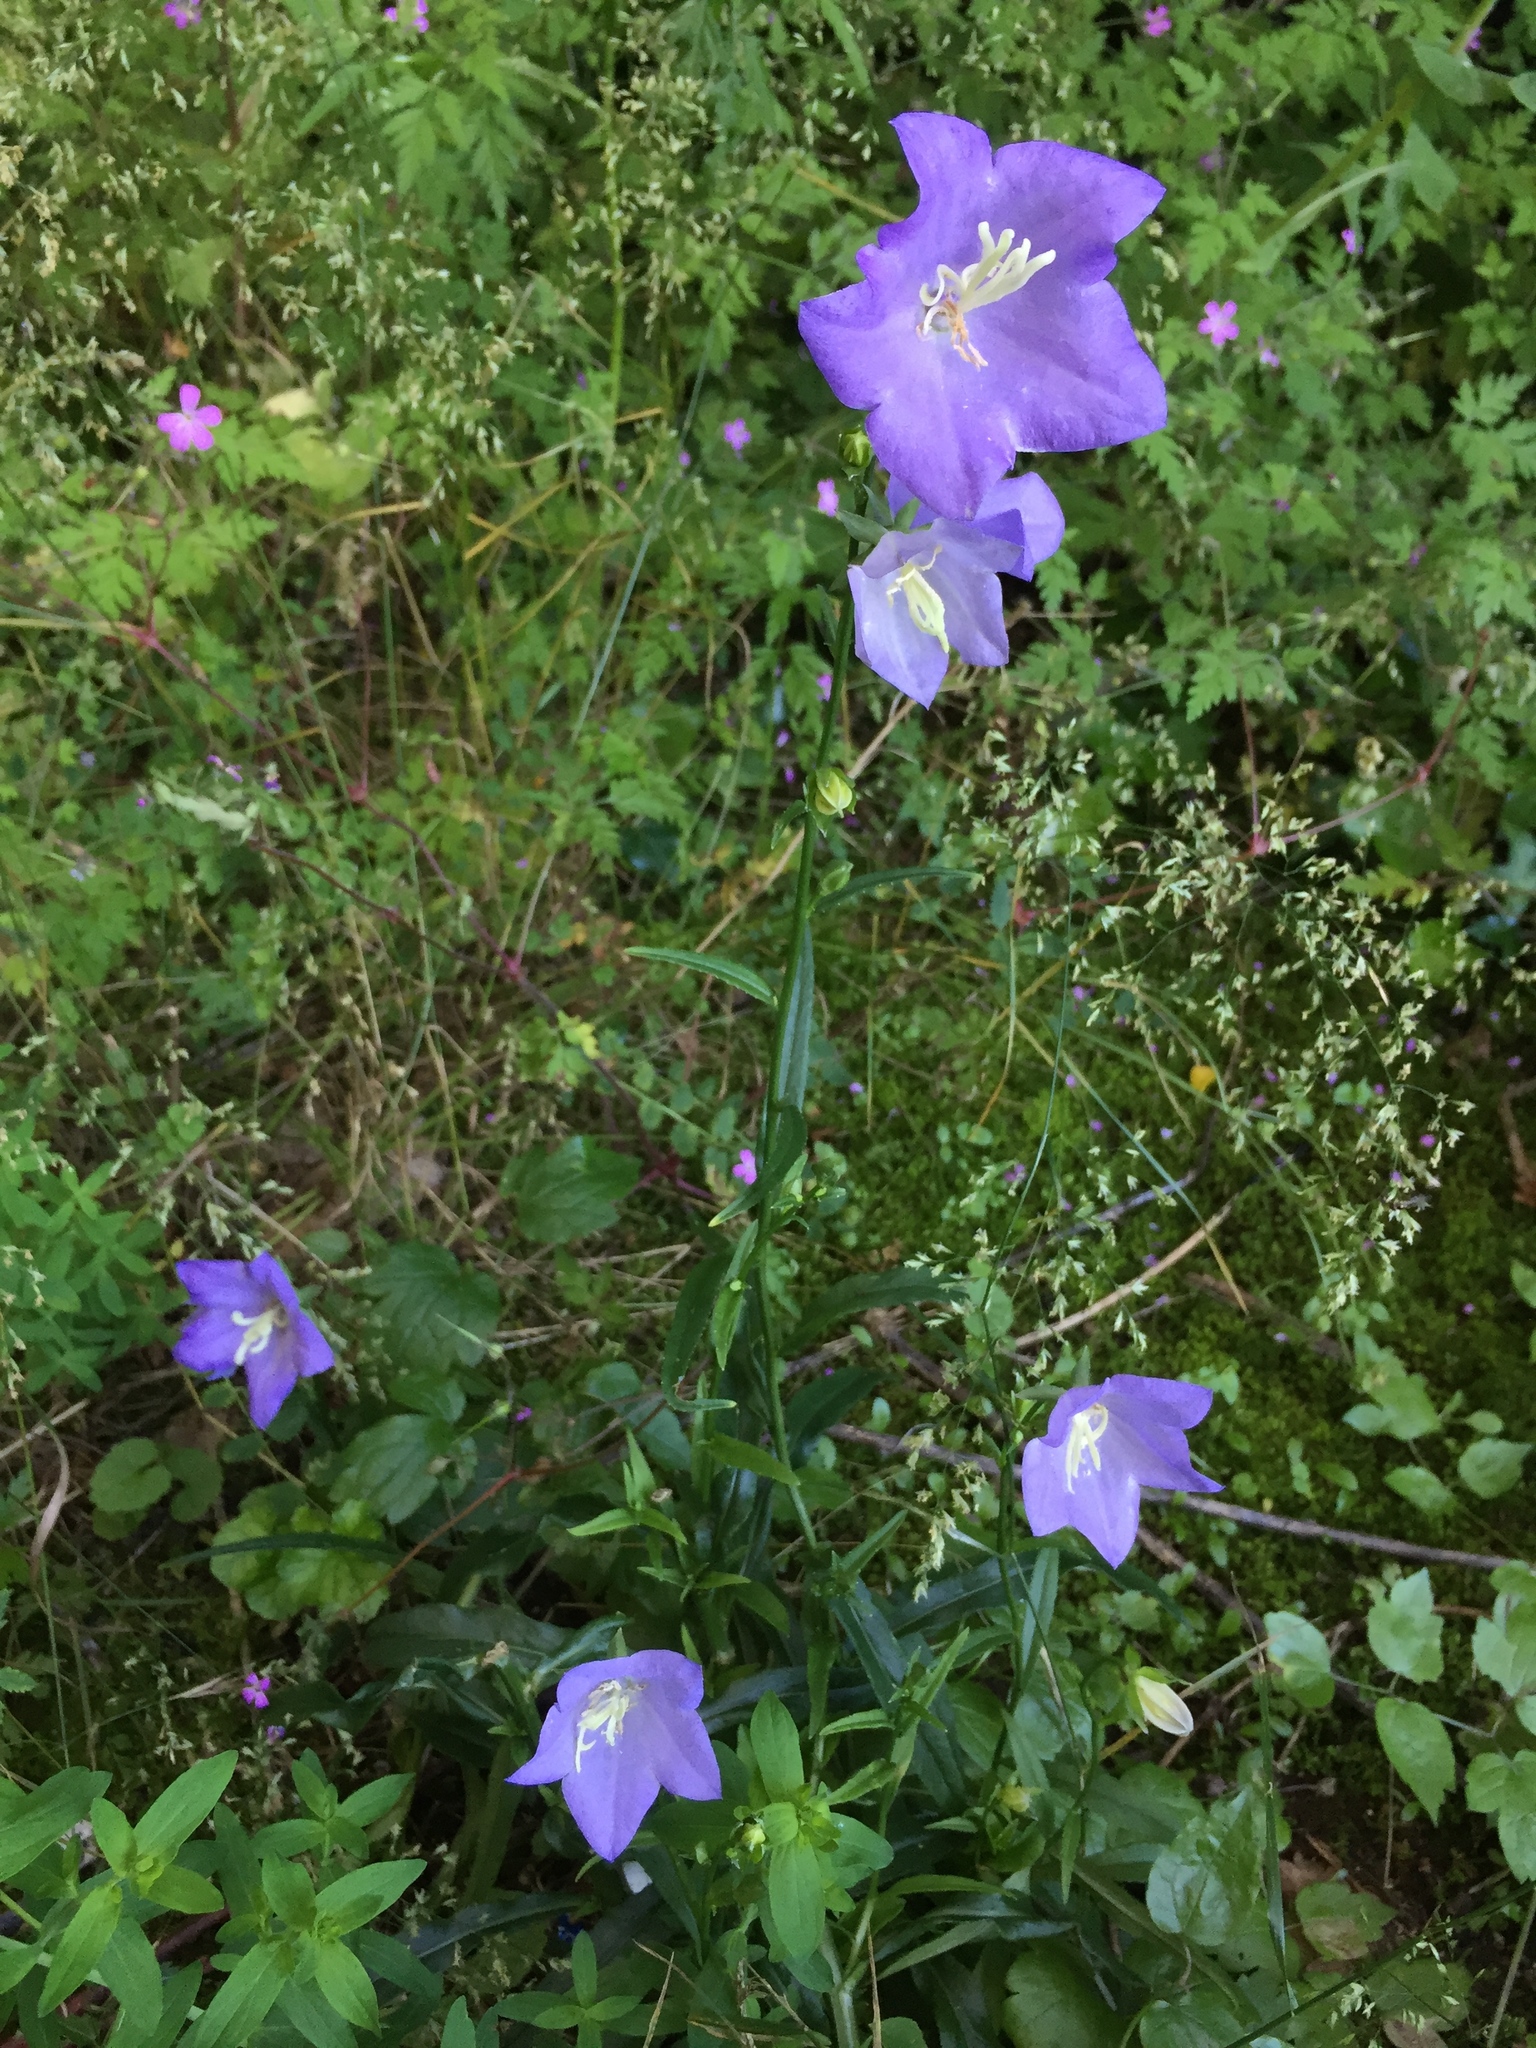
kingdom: Plantae
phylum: Tracheophyta
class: Magnoliopsida
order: Asterales
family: Campanulaceae
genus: Campanula
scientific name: Campanula persicifolia
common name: Peach-leaved bellflower
